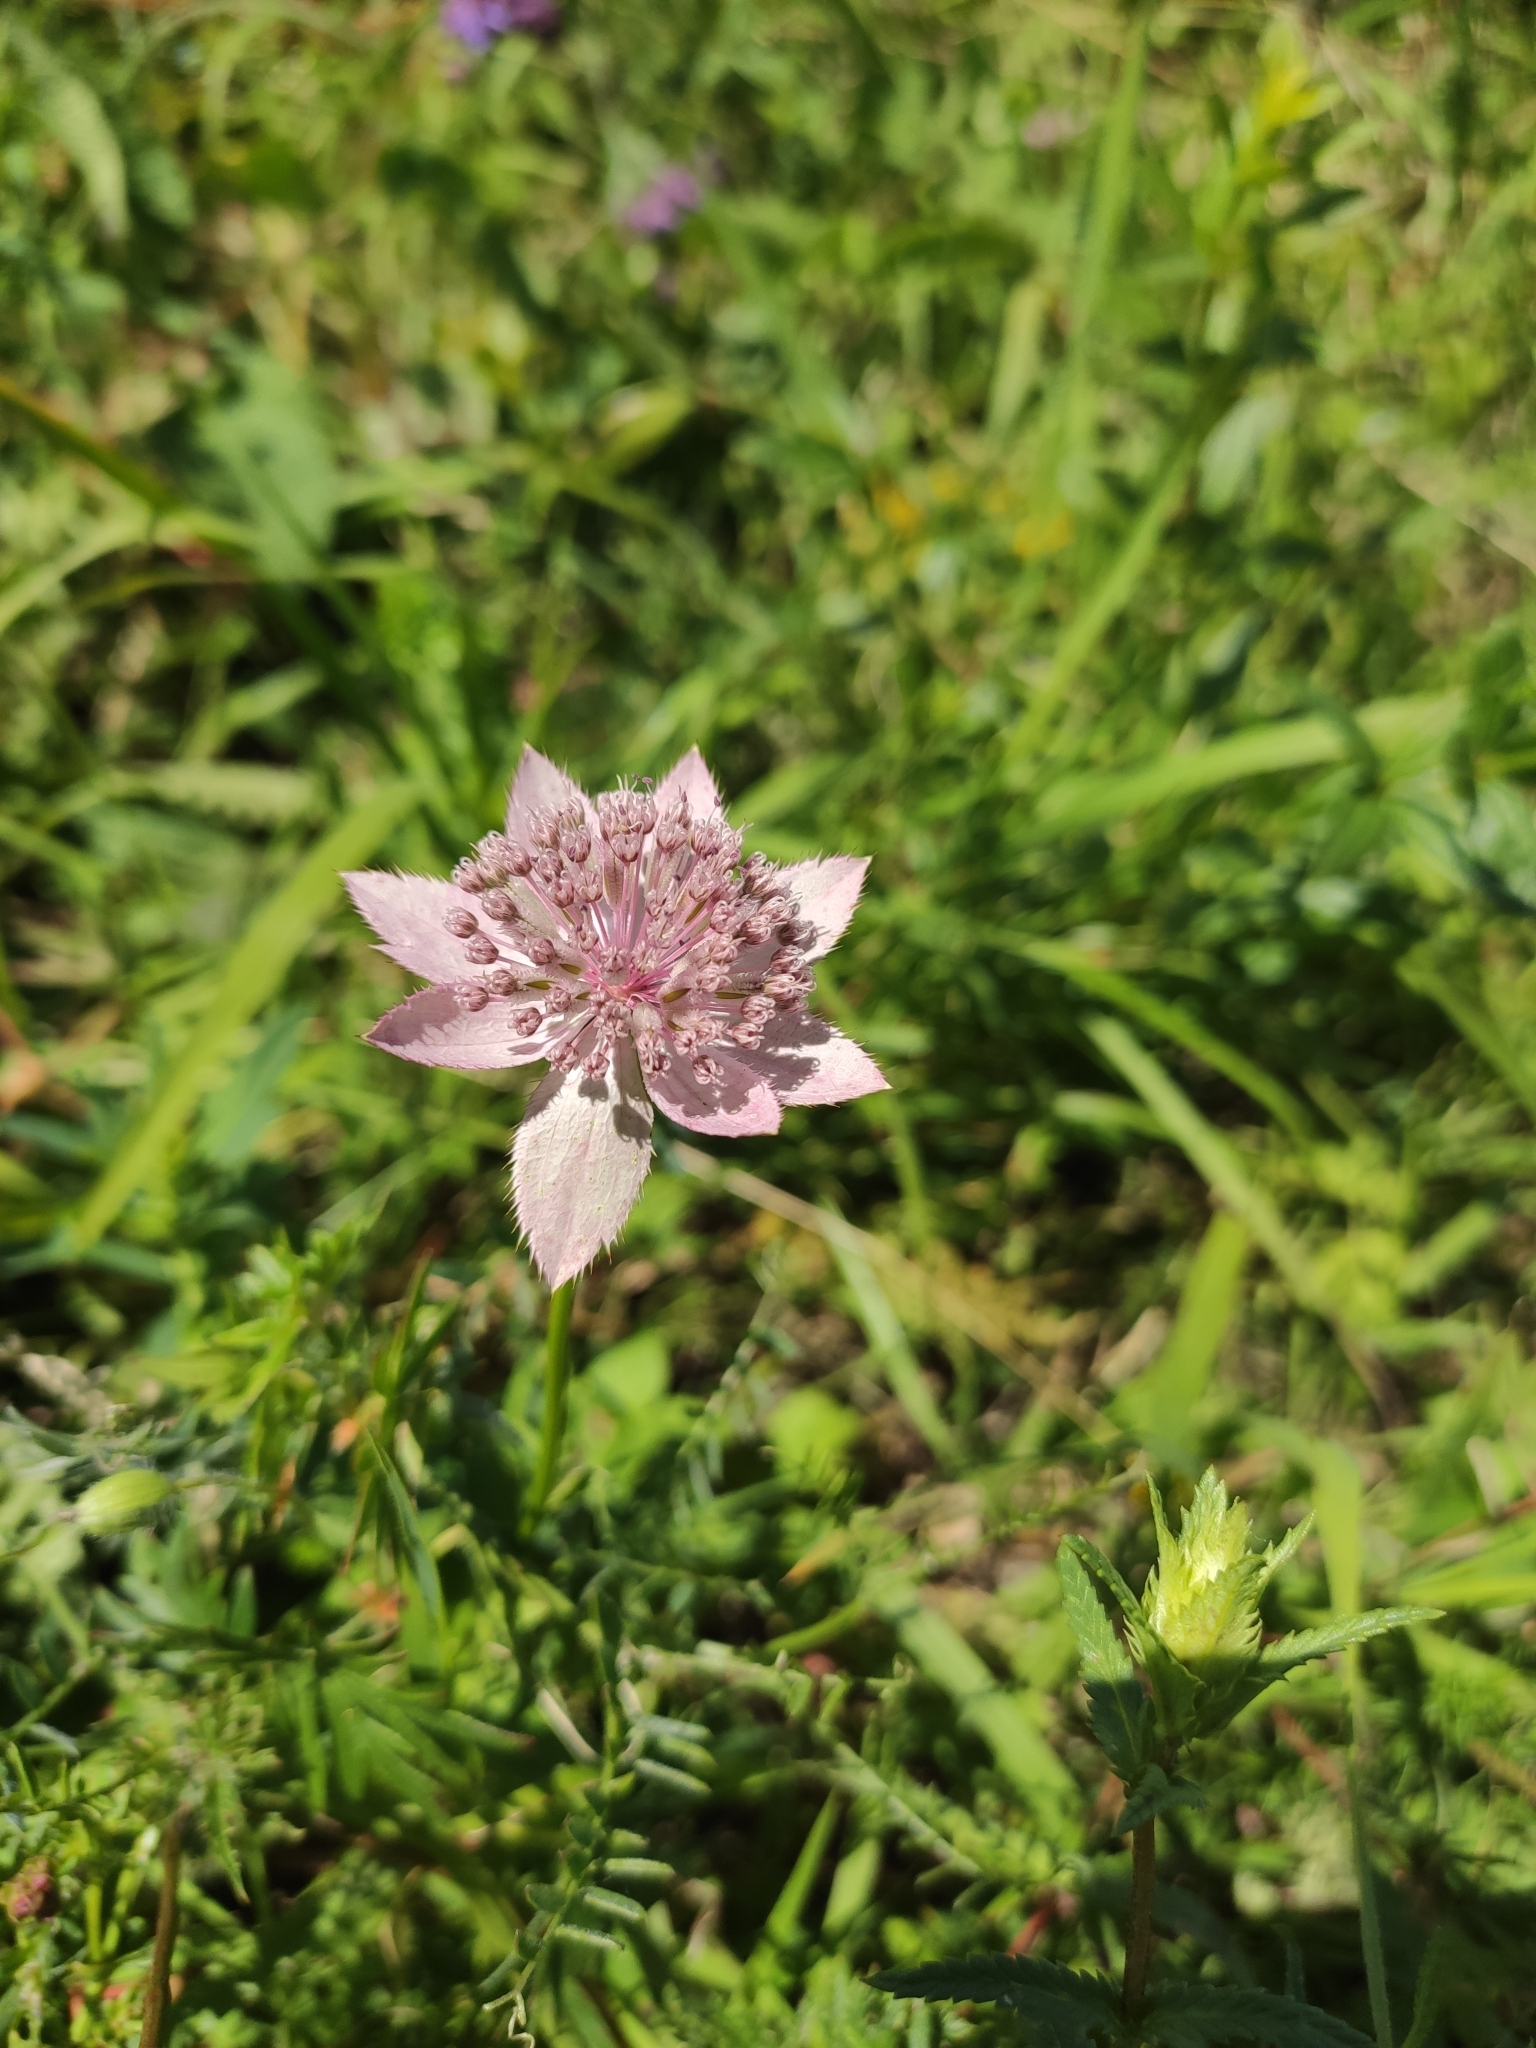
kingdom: Plantae
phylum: Tracheophyta
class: Magnoliopsida
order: Apiales
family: Apiaceae
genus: Astrantia
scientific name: Astrantia maxima
